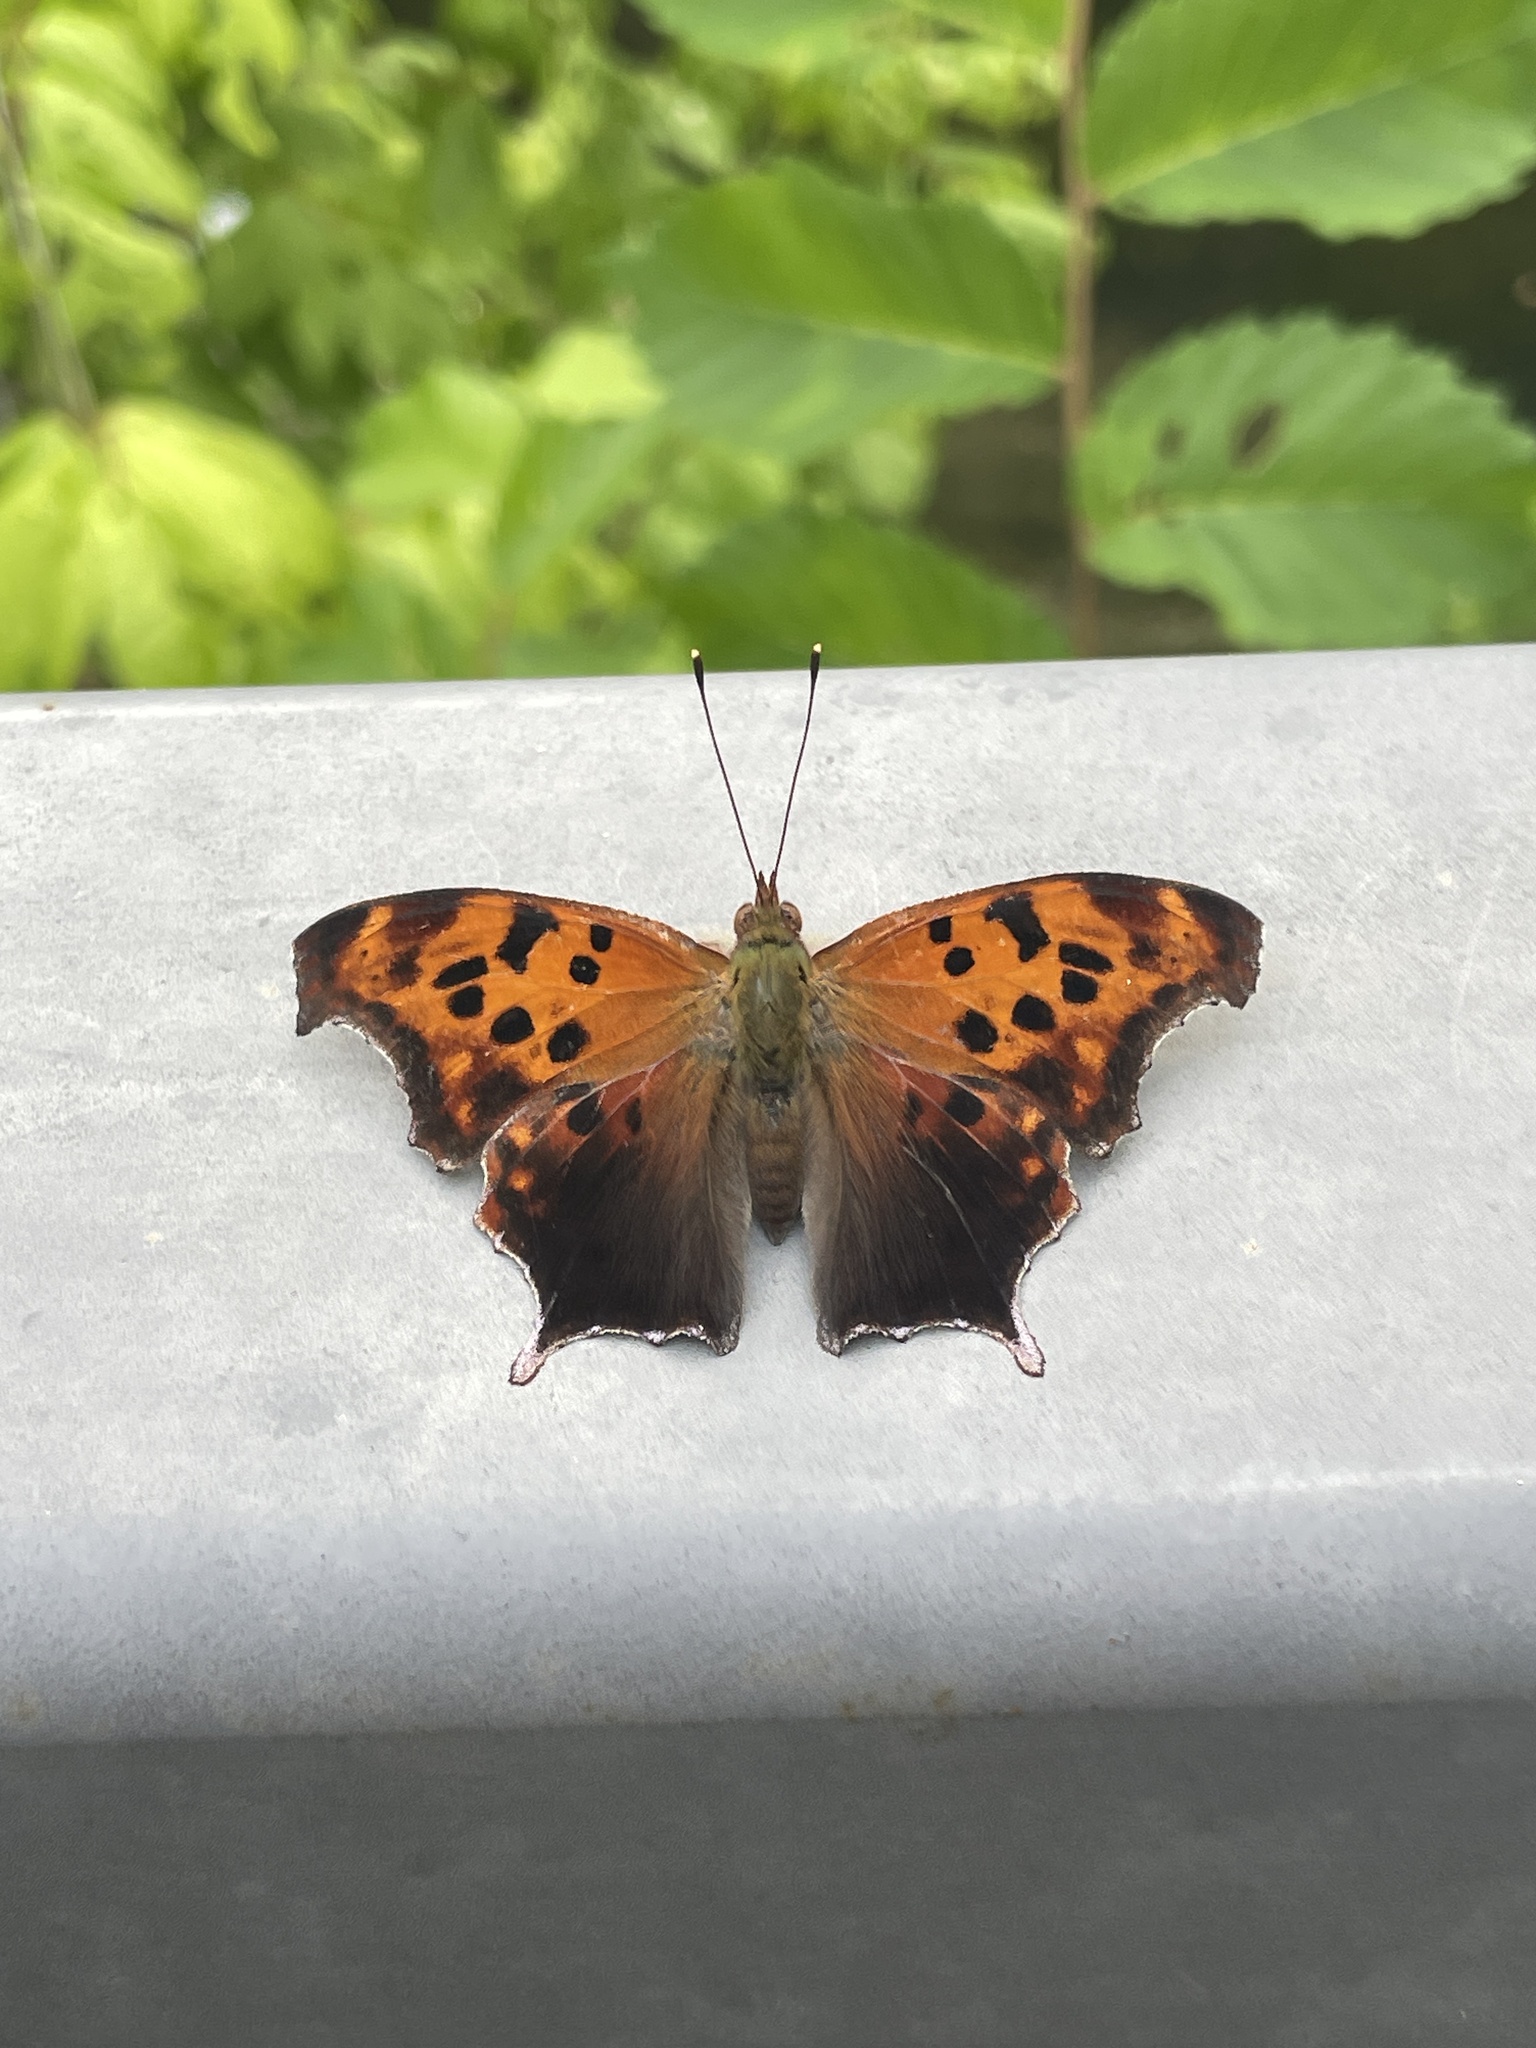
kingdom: Animalia
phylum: Arthropoda
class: Insecta
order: Lepidoptera
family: Nymphalidae
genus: Polygonia
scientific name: Polygonia interrogationis
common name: Question mark
